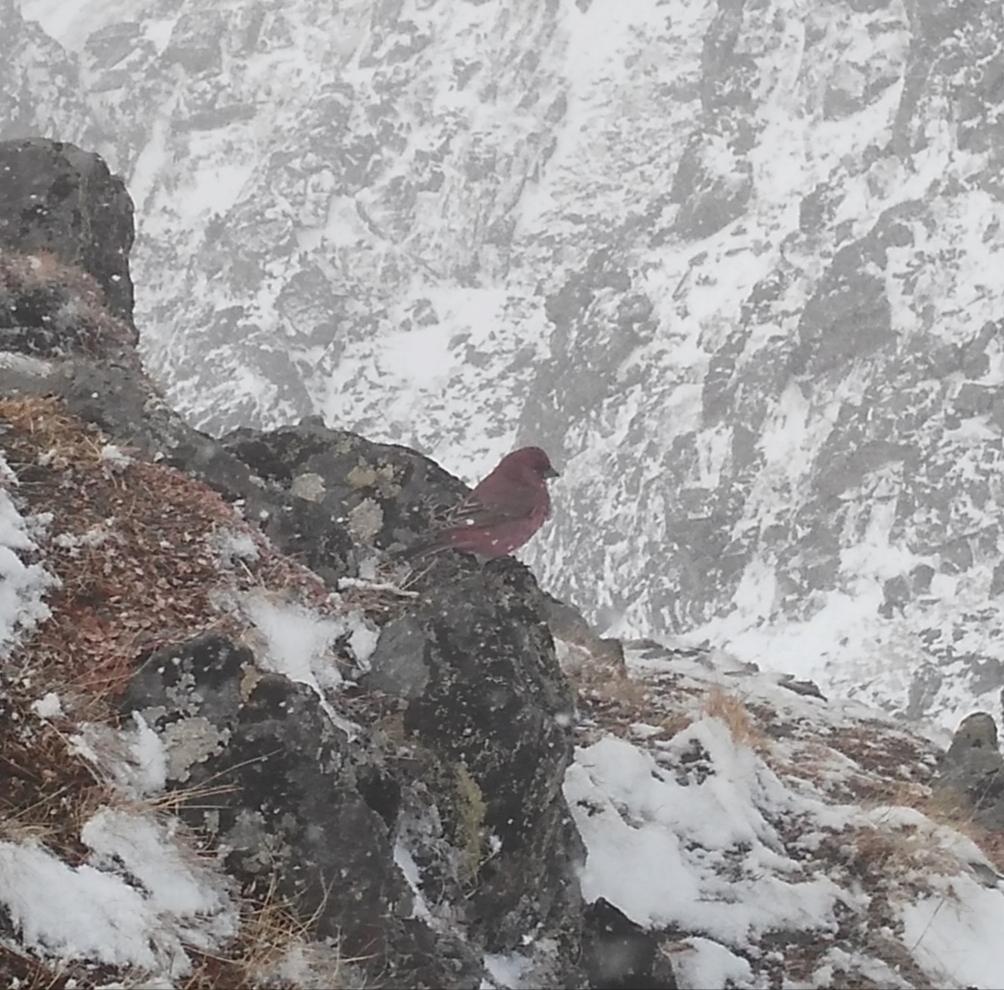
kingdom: Animalia
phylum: Chordata
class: Aves
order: Passeriformes
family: Fringillidae
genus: Carpodacus
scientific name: Carpodacus rubicilla
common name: Great rosefinch
